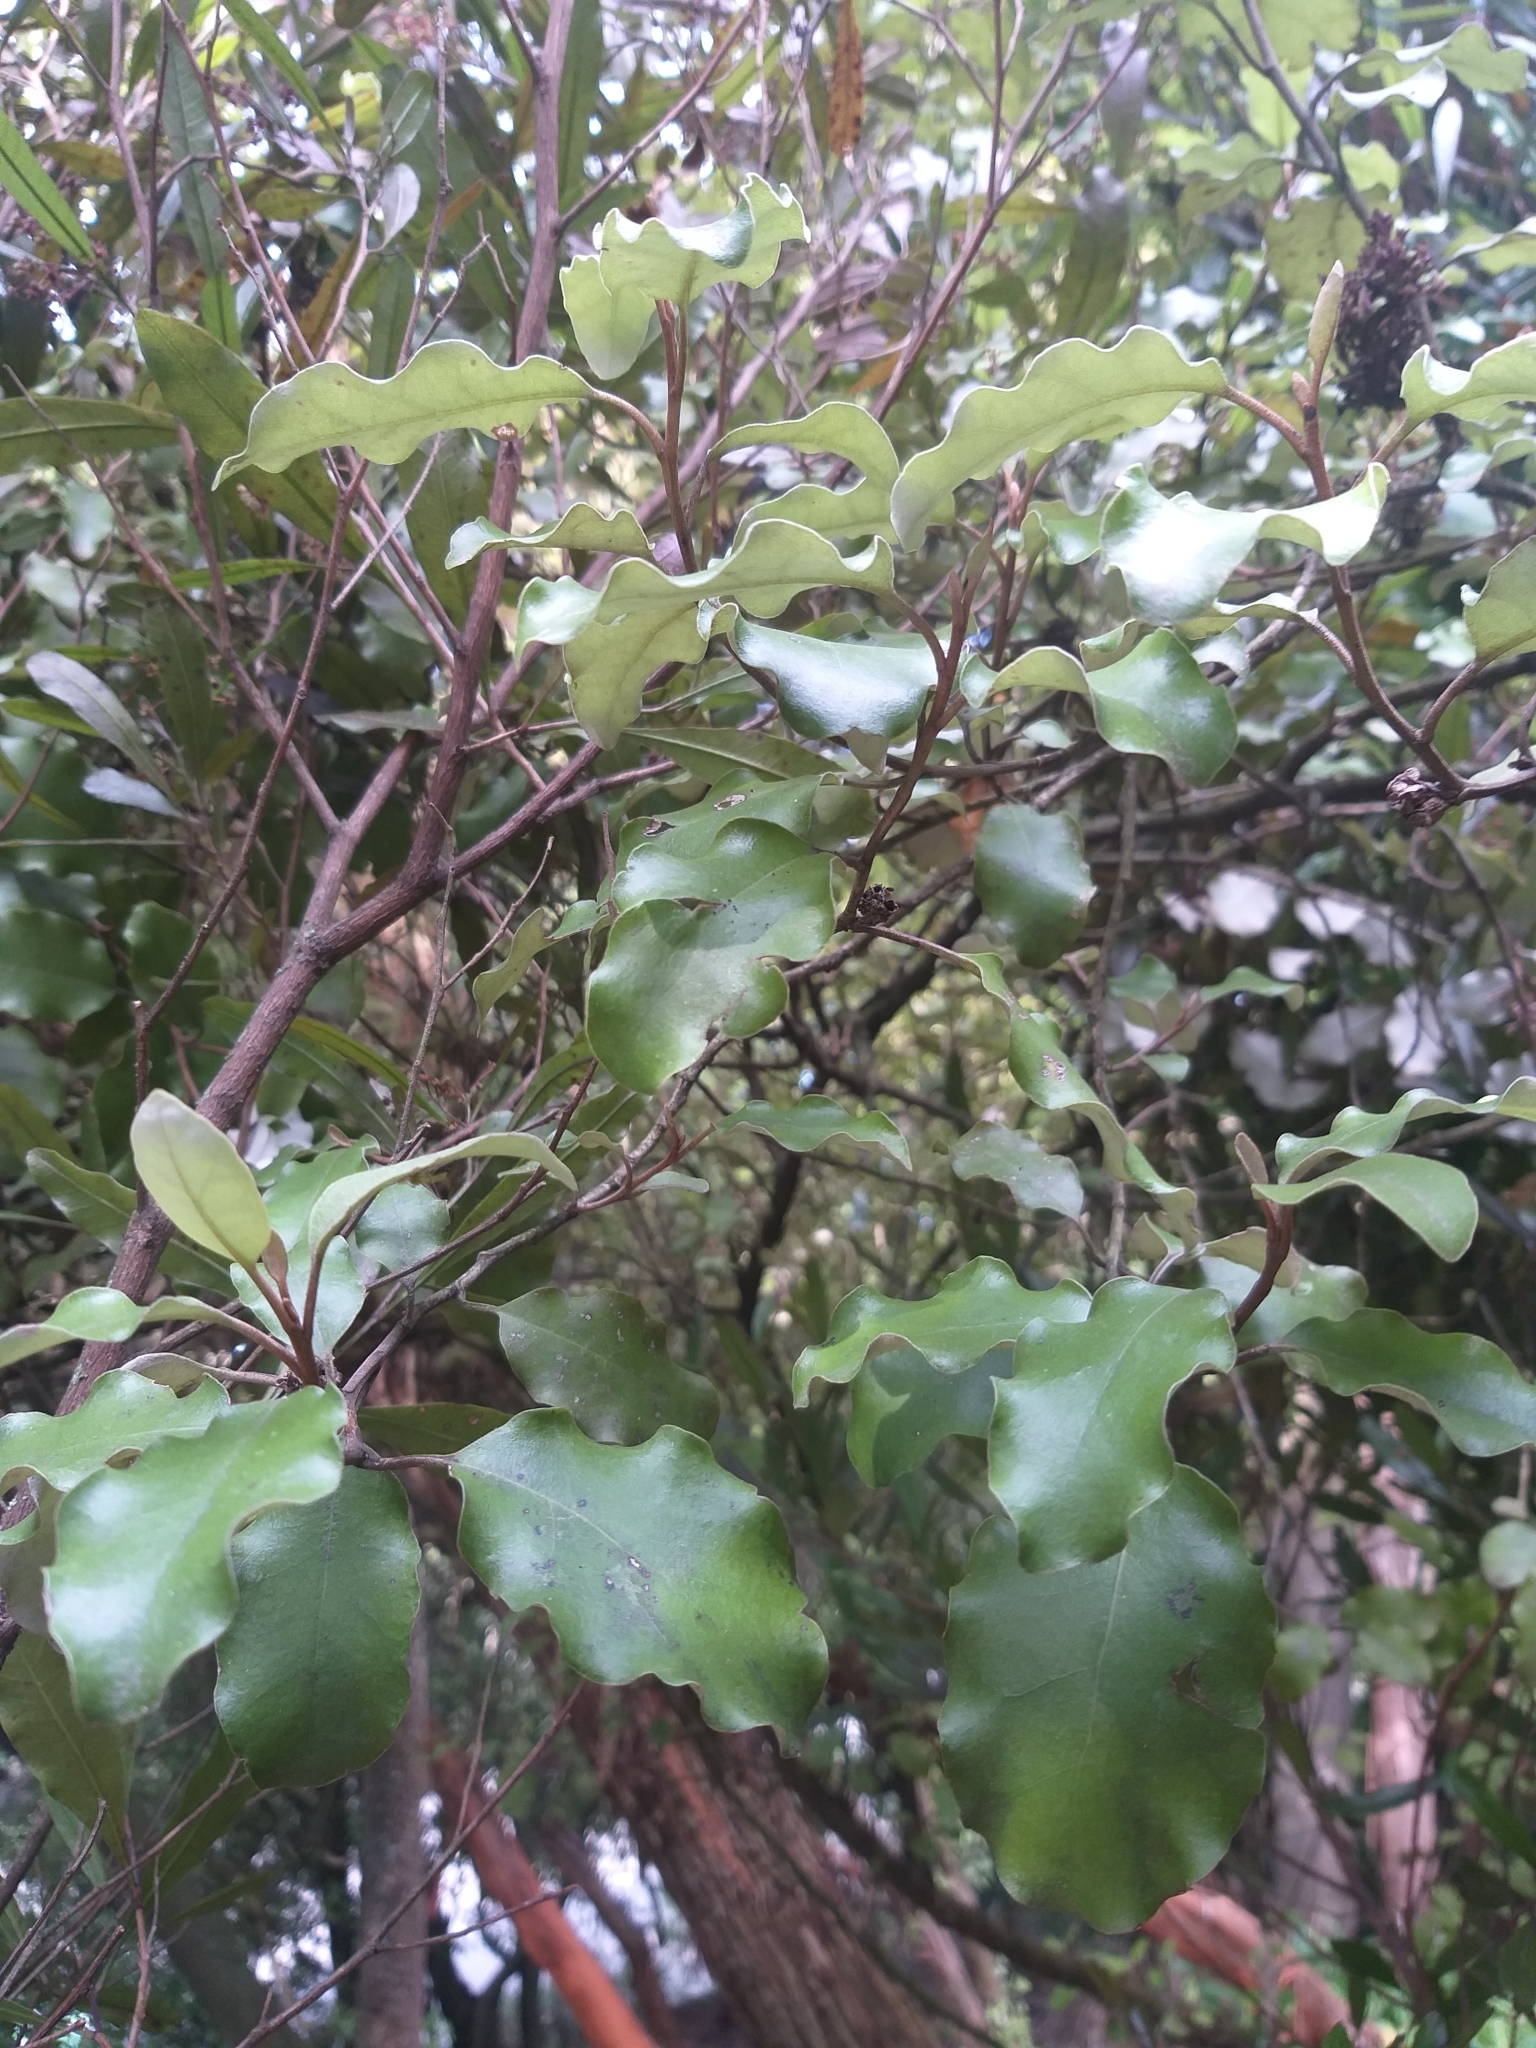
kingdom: Plantae
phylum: Tracheophyta
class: Magnoliopsida
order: Asterales
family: Asteraceae
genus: Olearia
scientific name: Olearia paniculata
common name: Akiraho
